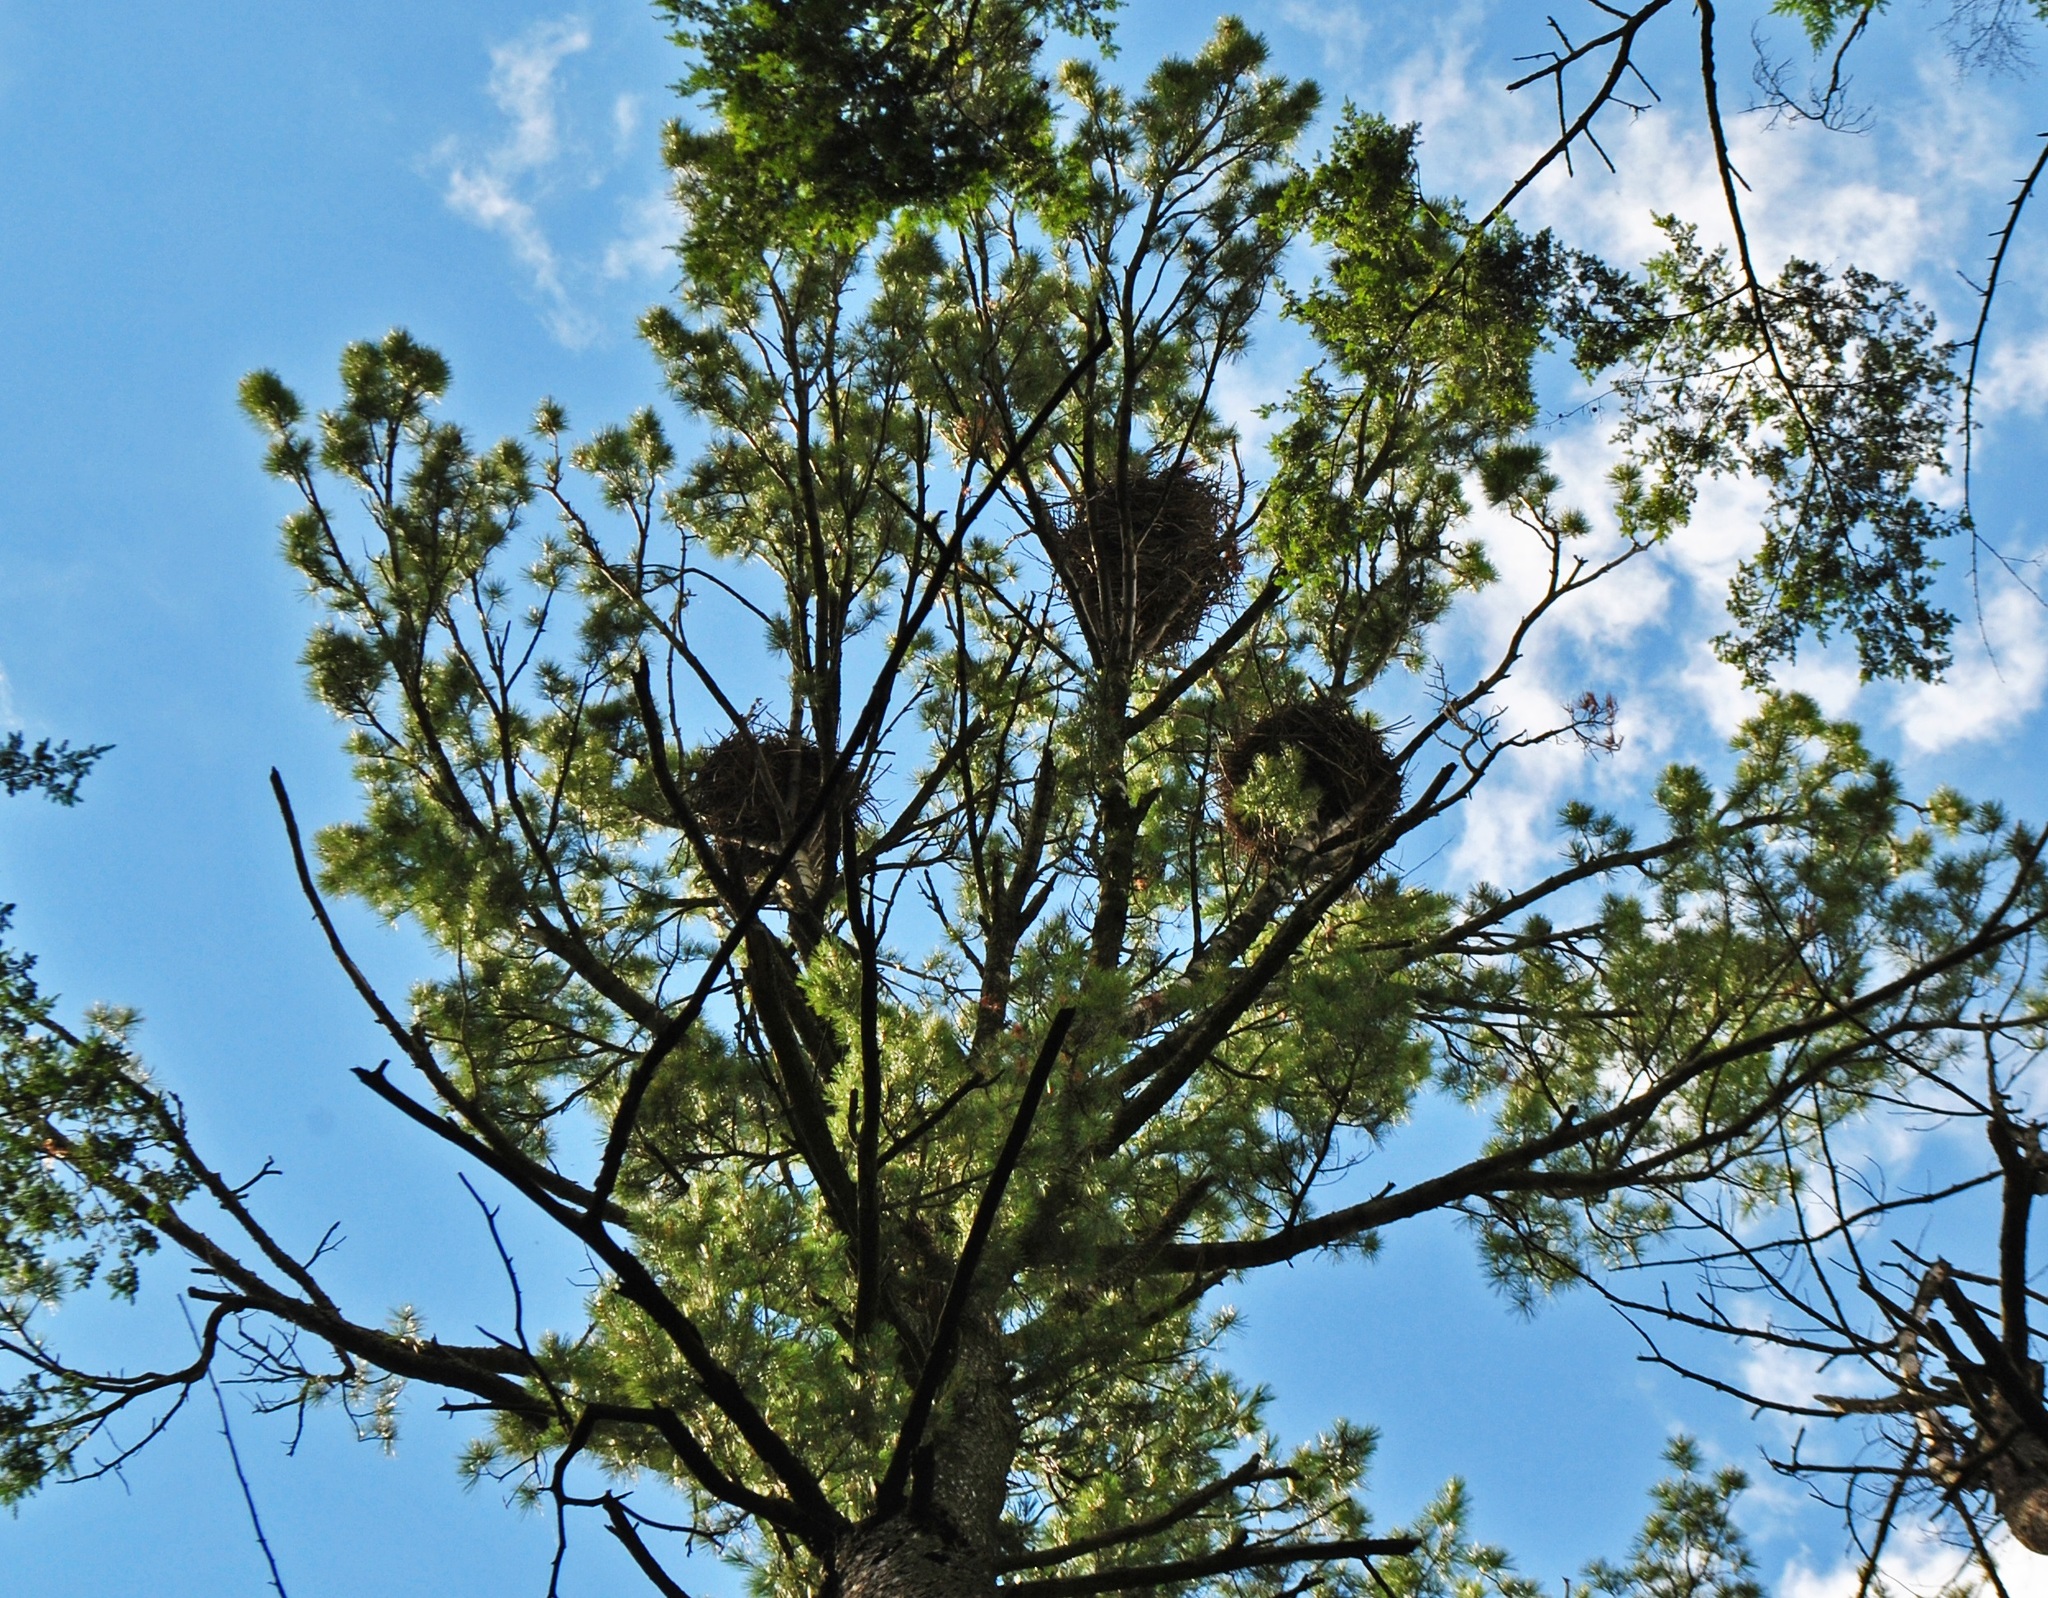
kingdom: Animalia
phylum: Chordata
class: Aves
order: Pelecaniformes
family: Ardeidae
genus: Ardea
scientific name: Ardea herodias
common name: Great blue heron
